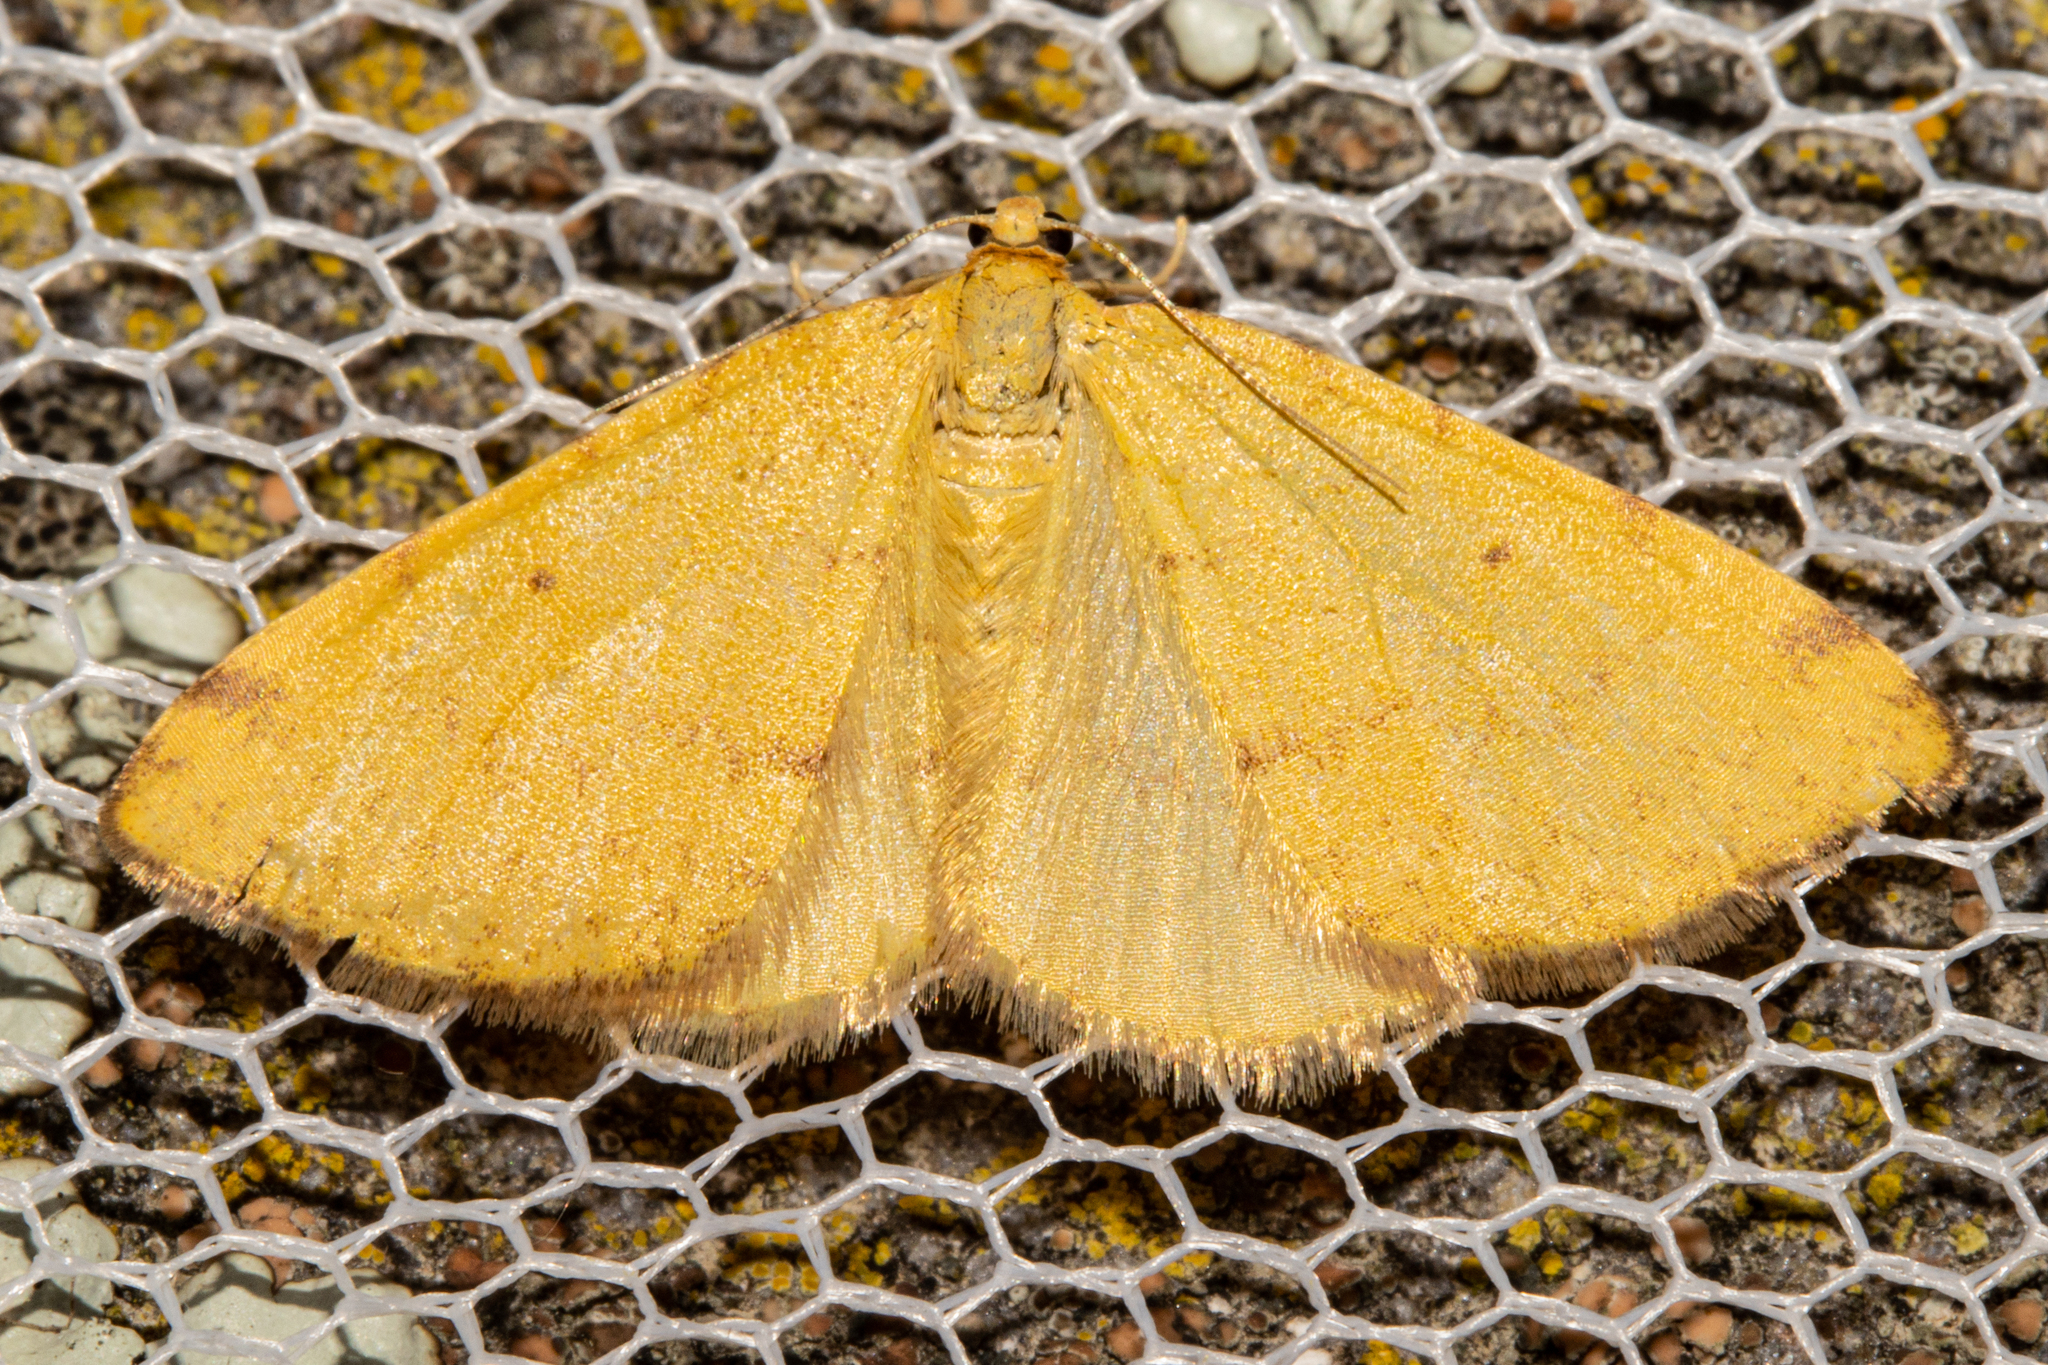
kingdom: Animalia
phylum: Arthropoda
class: Insecta
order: Lepidoptera
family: Geometridae
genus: Orthoclydon
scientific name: Orthoclydon chlorias
